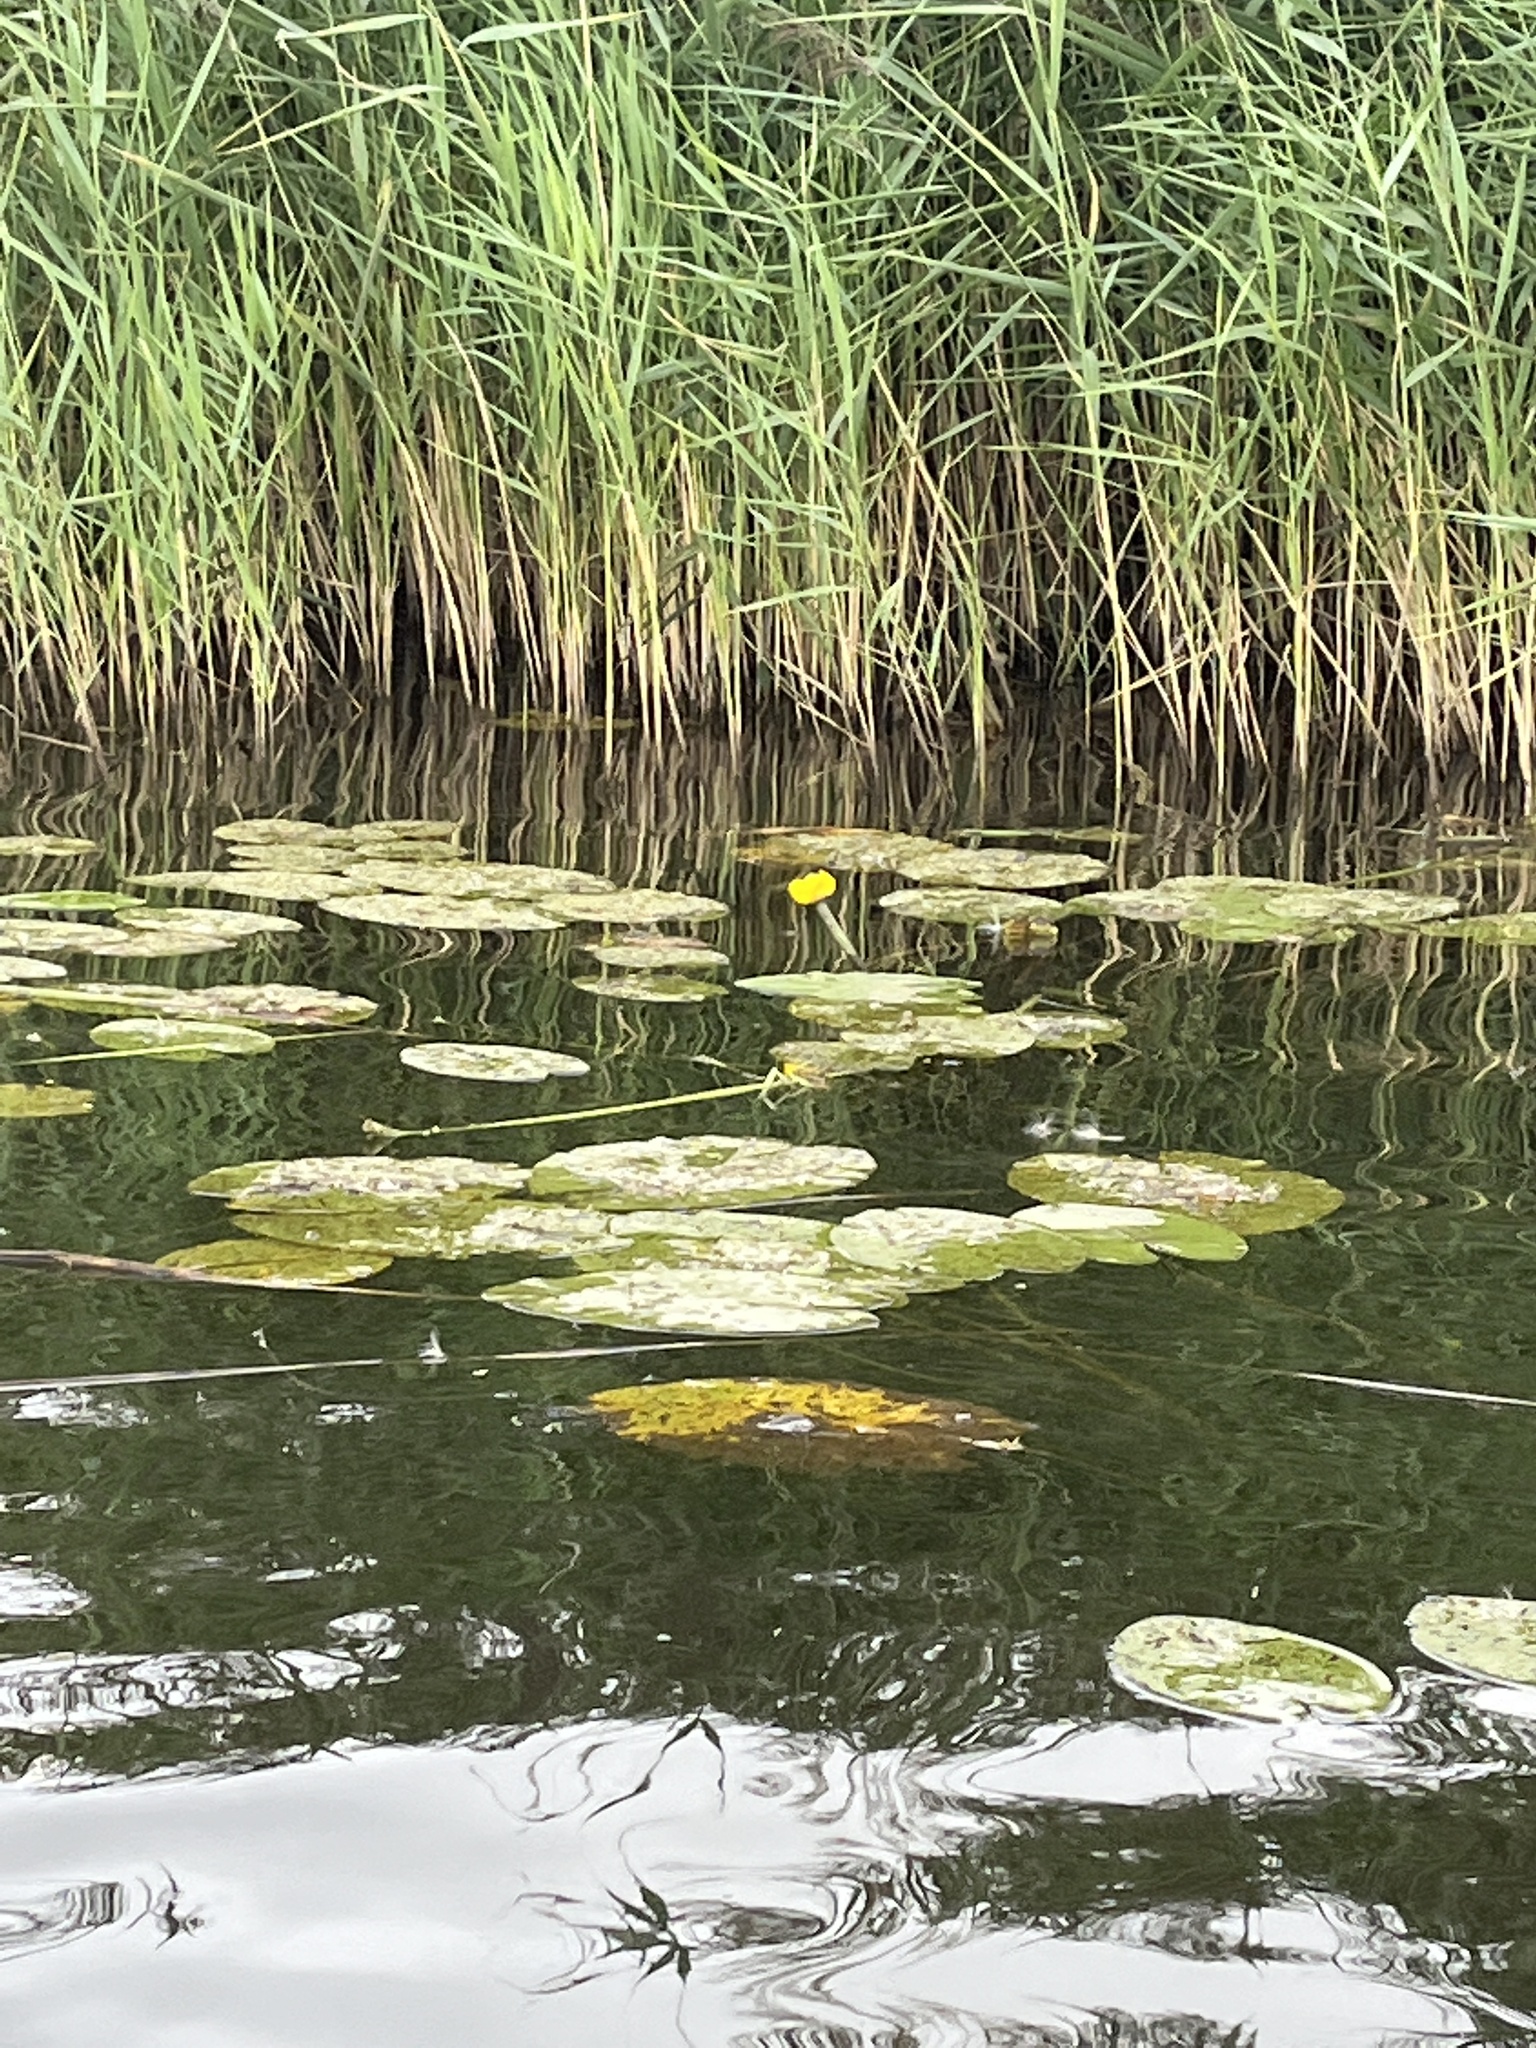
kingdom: Plantae
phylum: Tracheophyta
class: Magnoliopsida
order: Nymphaeales
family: Nymphaeaceae
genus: Nuphar
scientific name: Nuphar lutea
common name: Yellow water-lily
